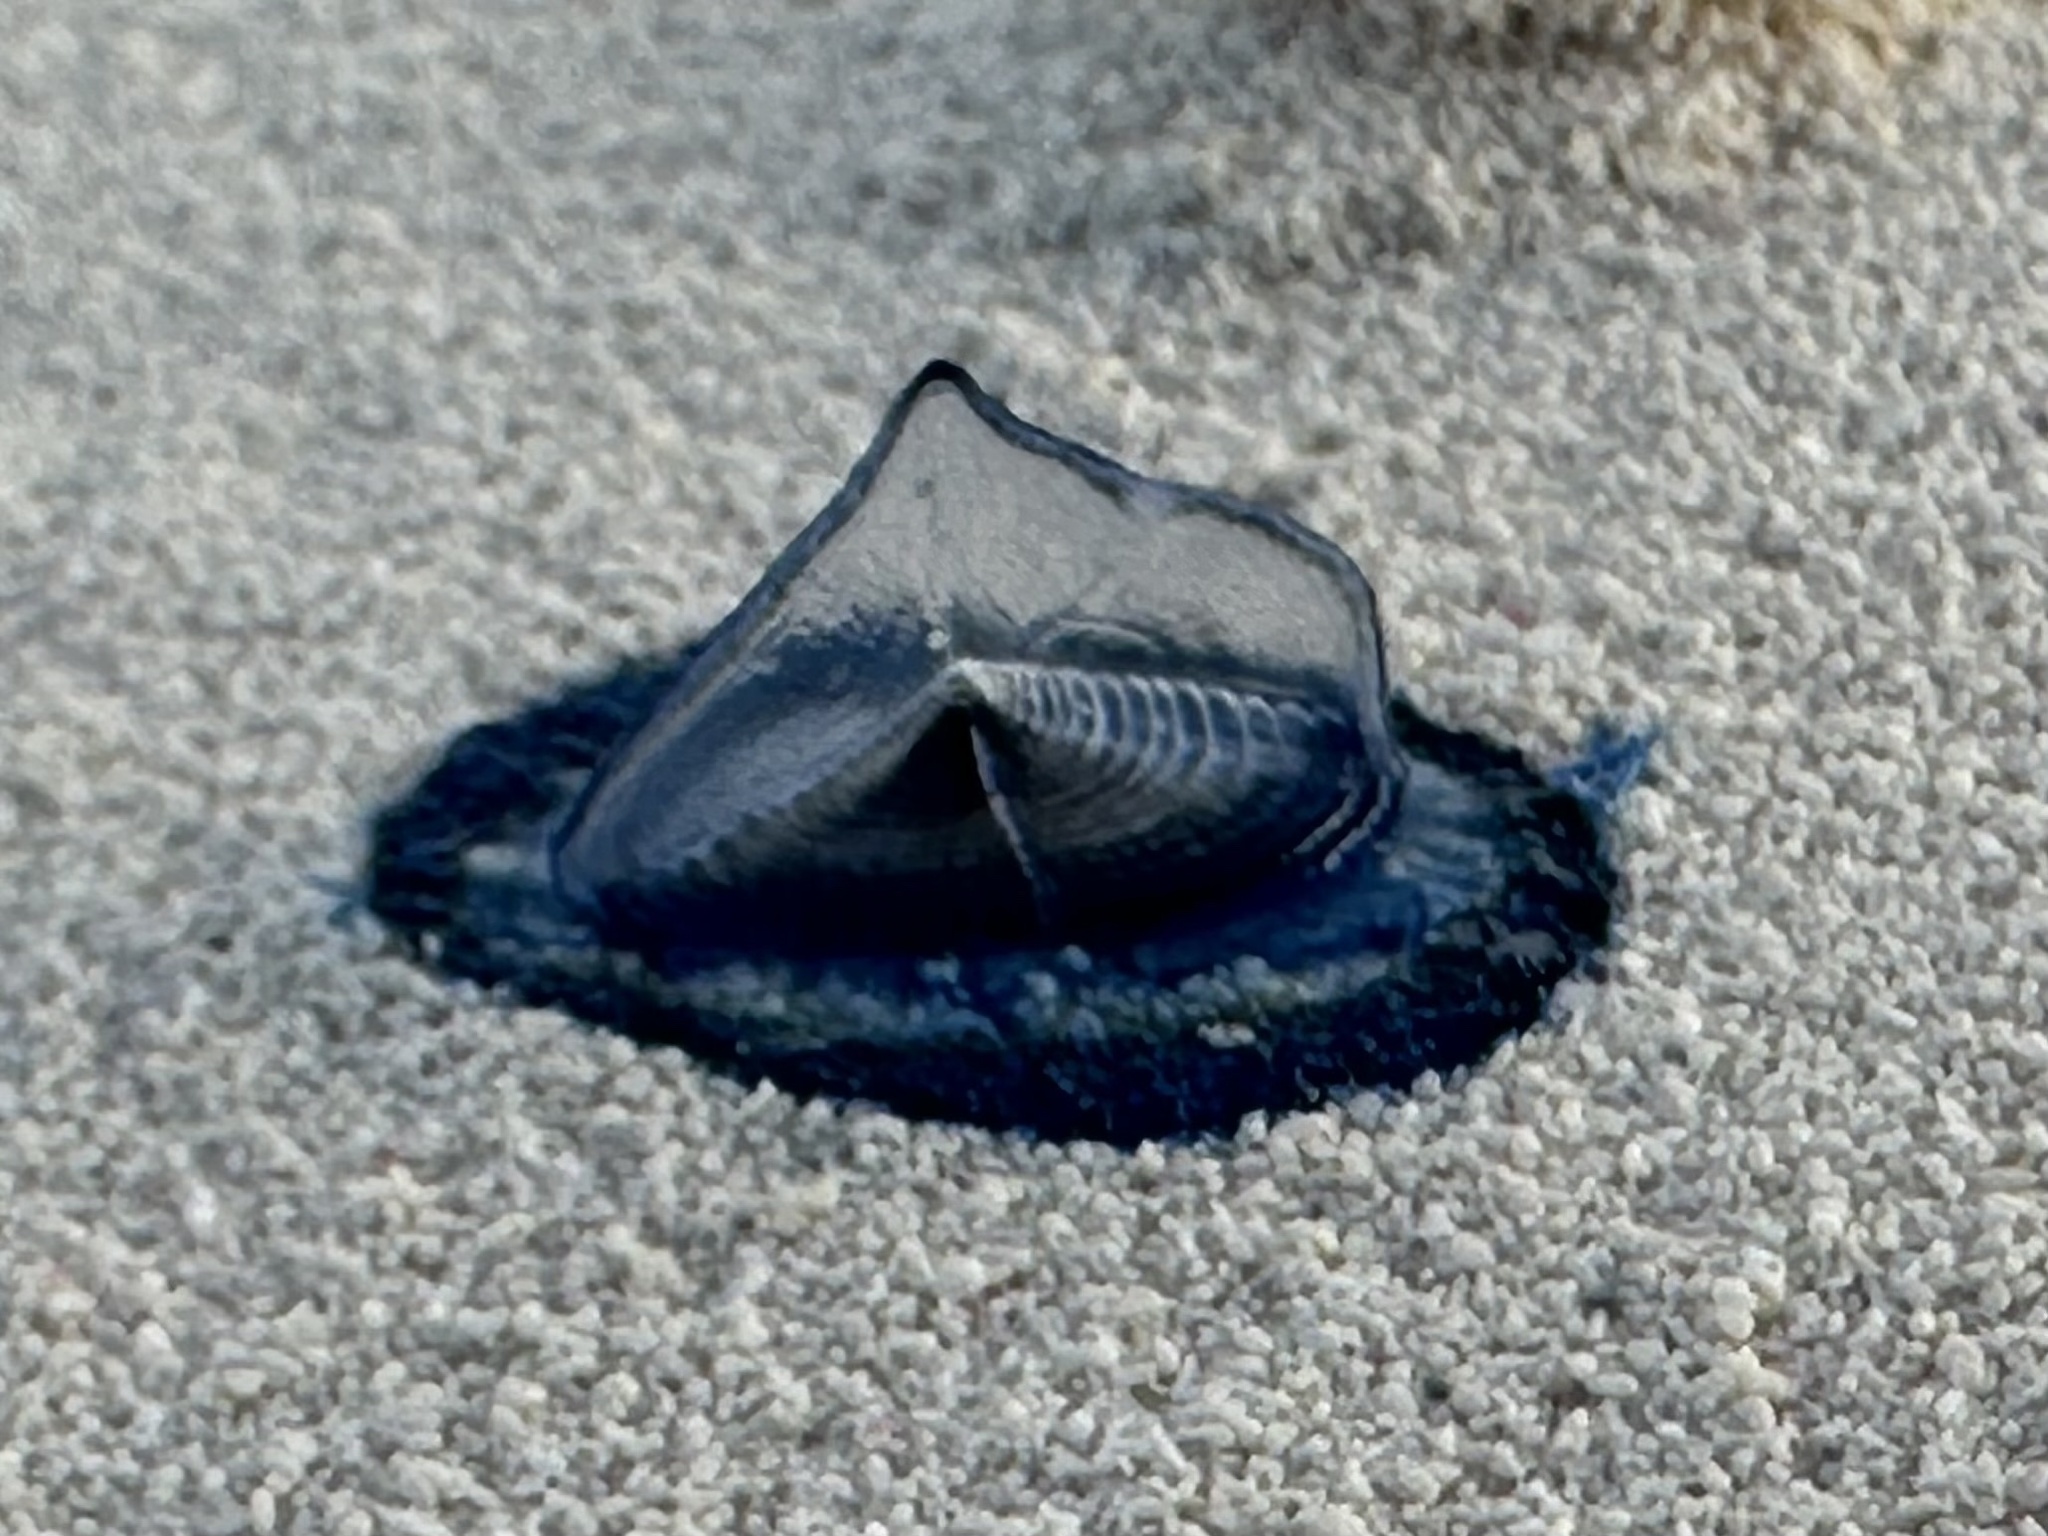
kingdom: Animalia
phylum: Cnidaria
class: Hydrozoa
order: Anthoathecata
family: Porpitidae
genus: Velella
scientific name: Velella velella
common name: By-the-wind-sailor
